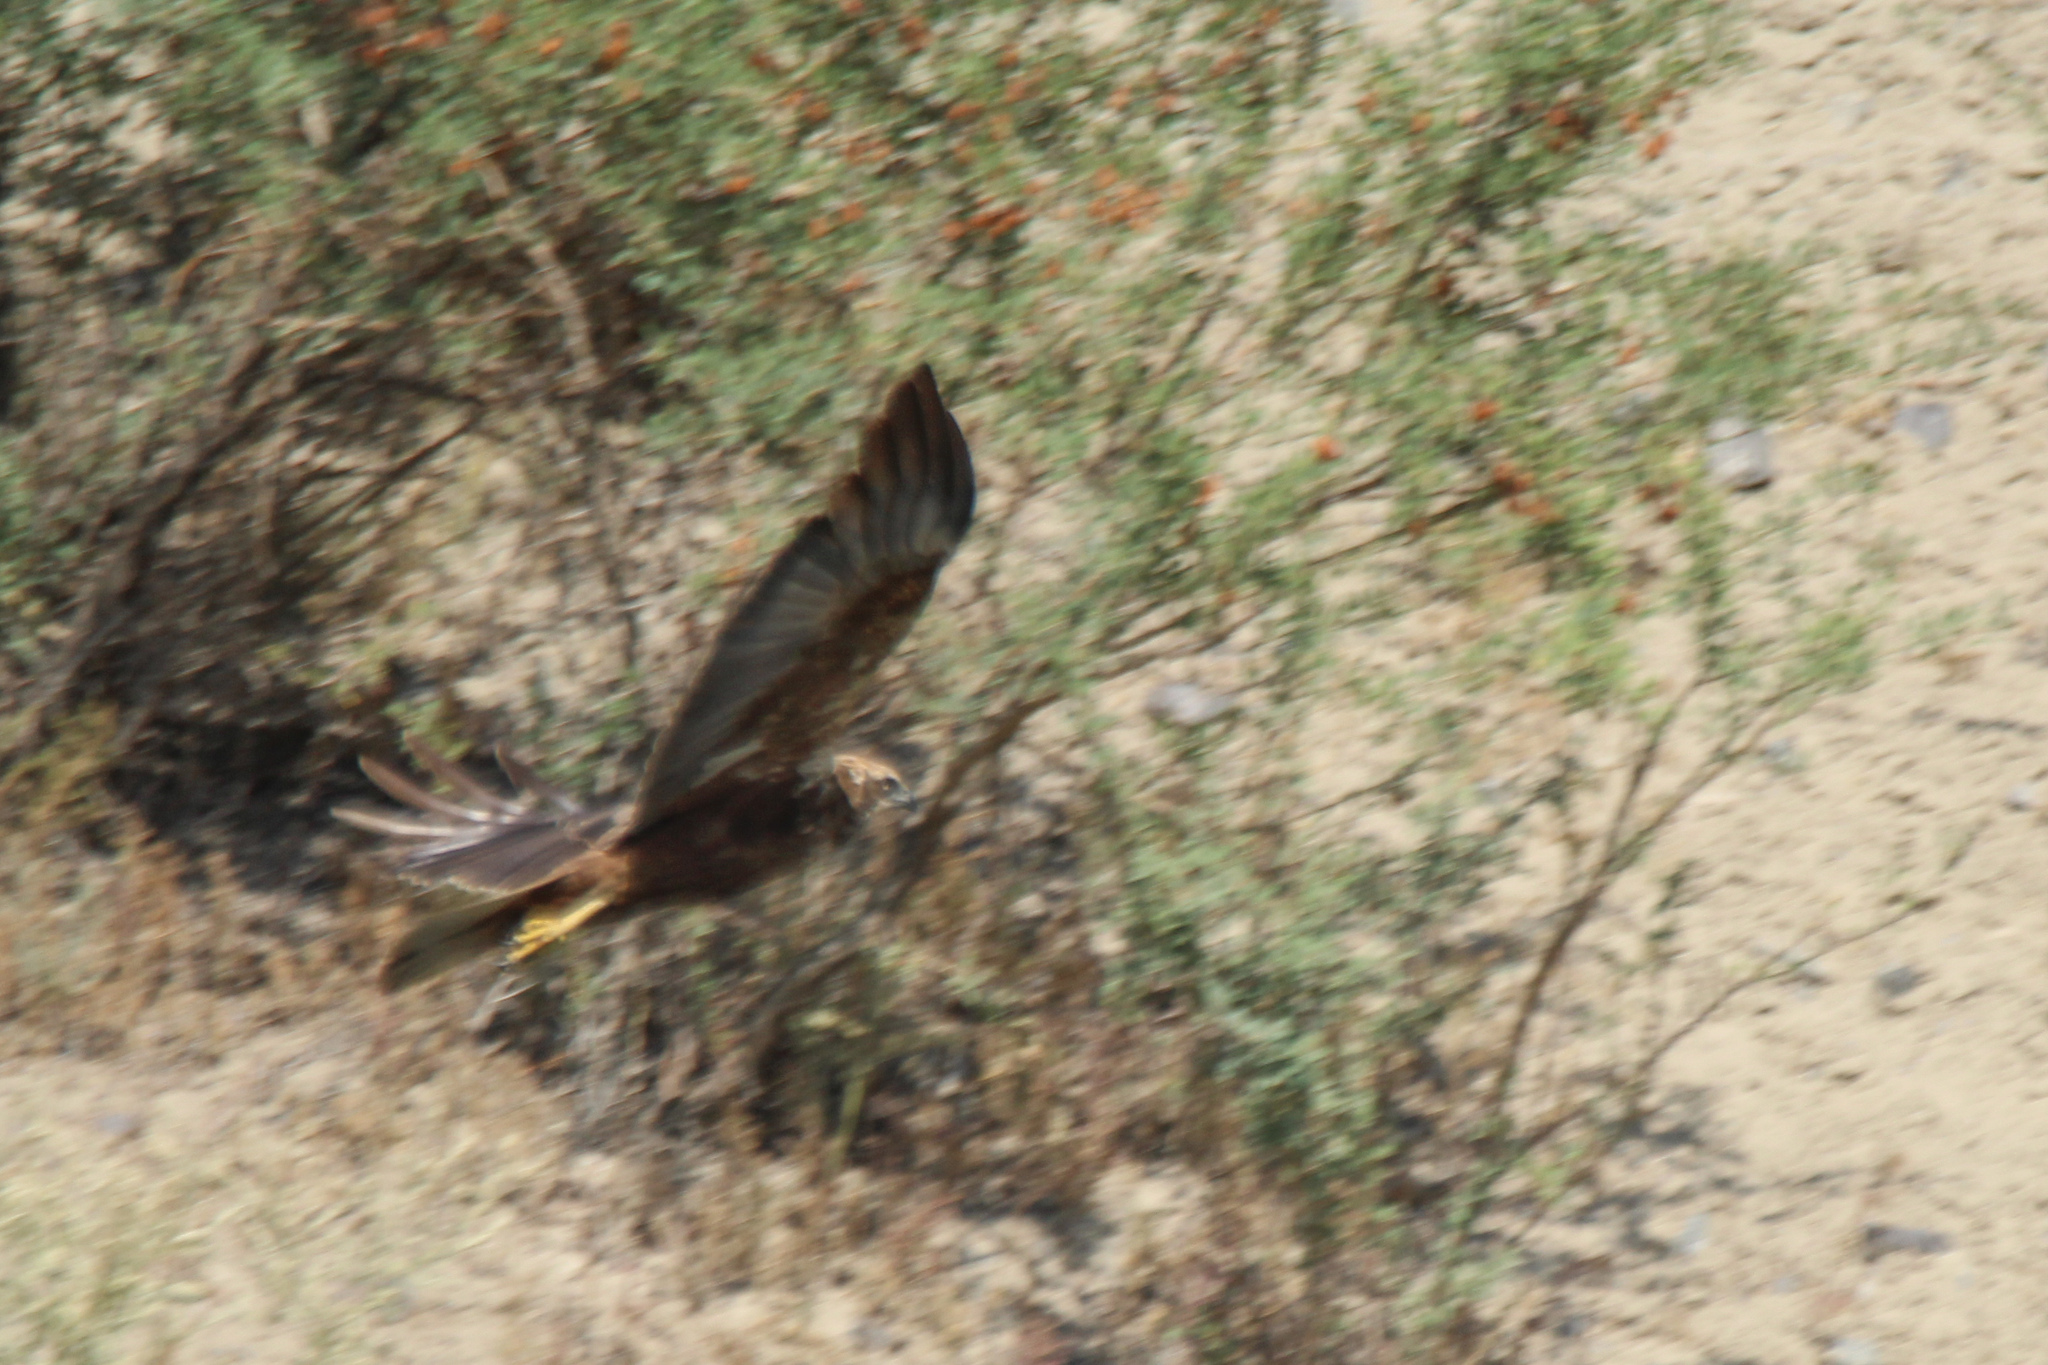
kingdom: Animalia
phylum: Chordata
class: Aves
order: Accipitriformes
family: Accipitridae
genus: Circus
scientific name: Circus aeruginosus
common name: Western marsh harrier
